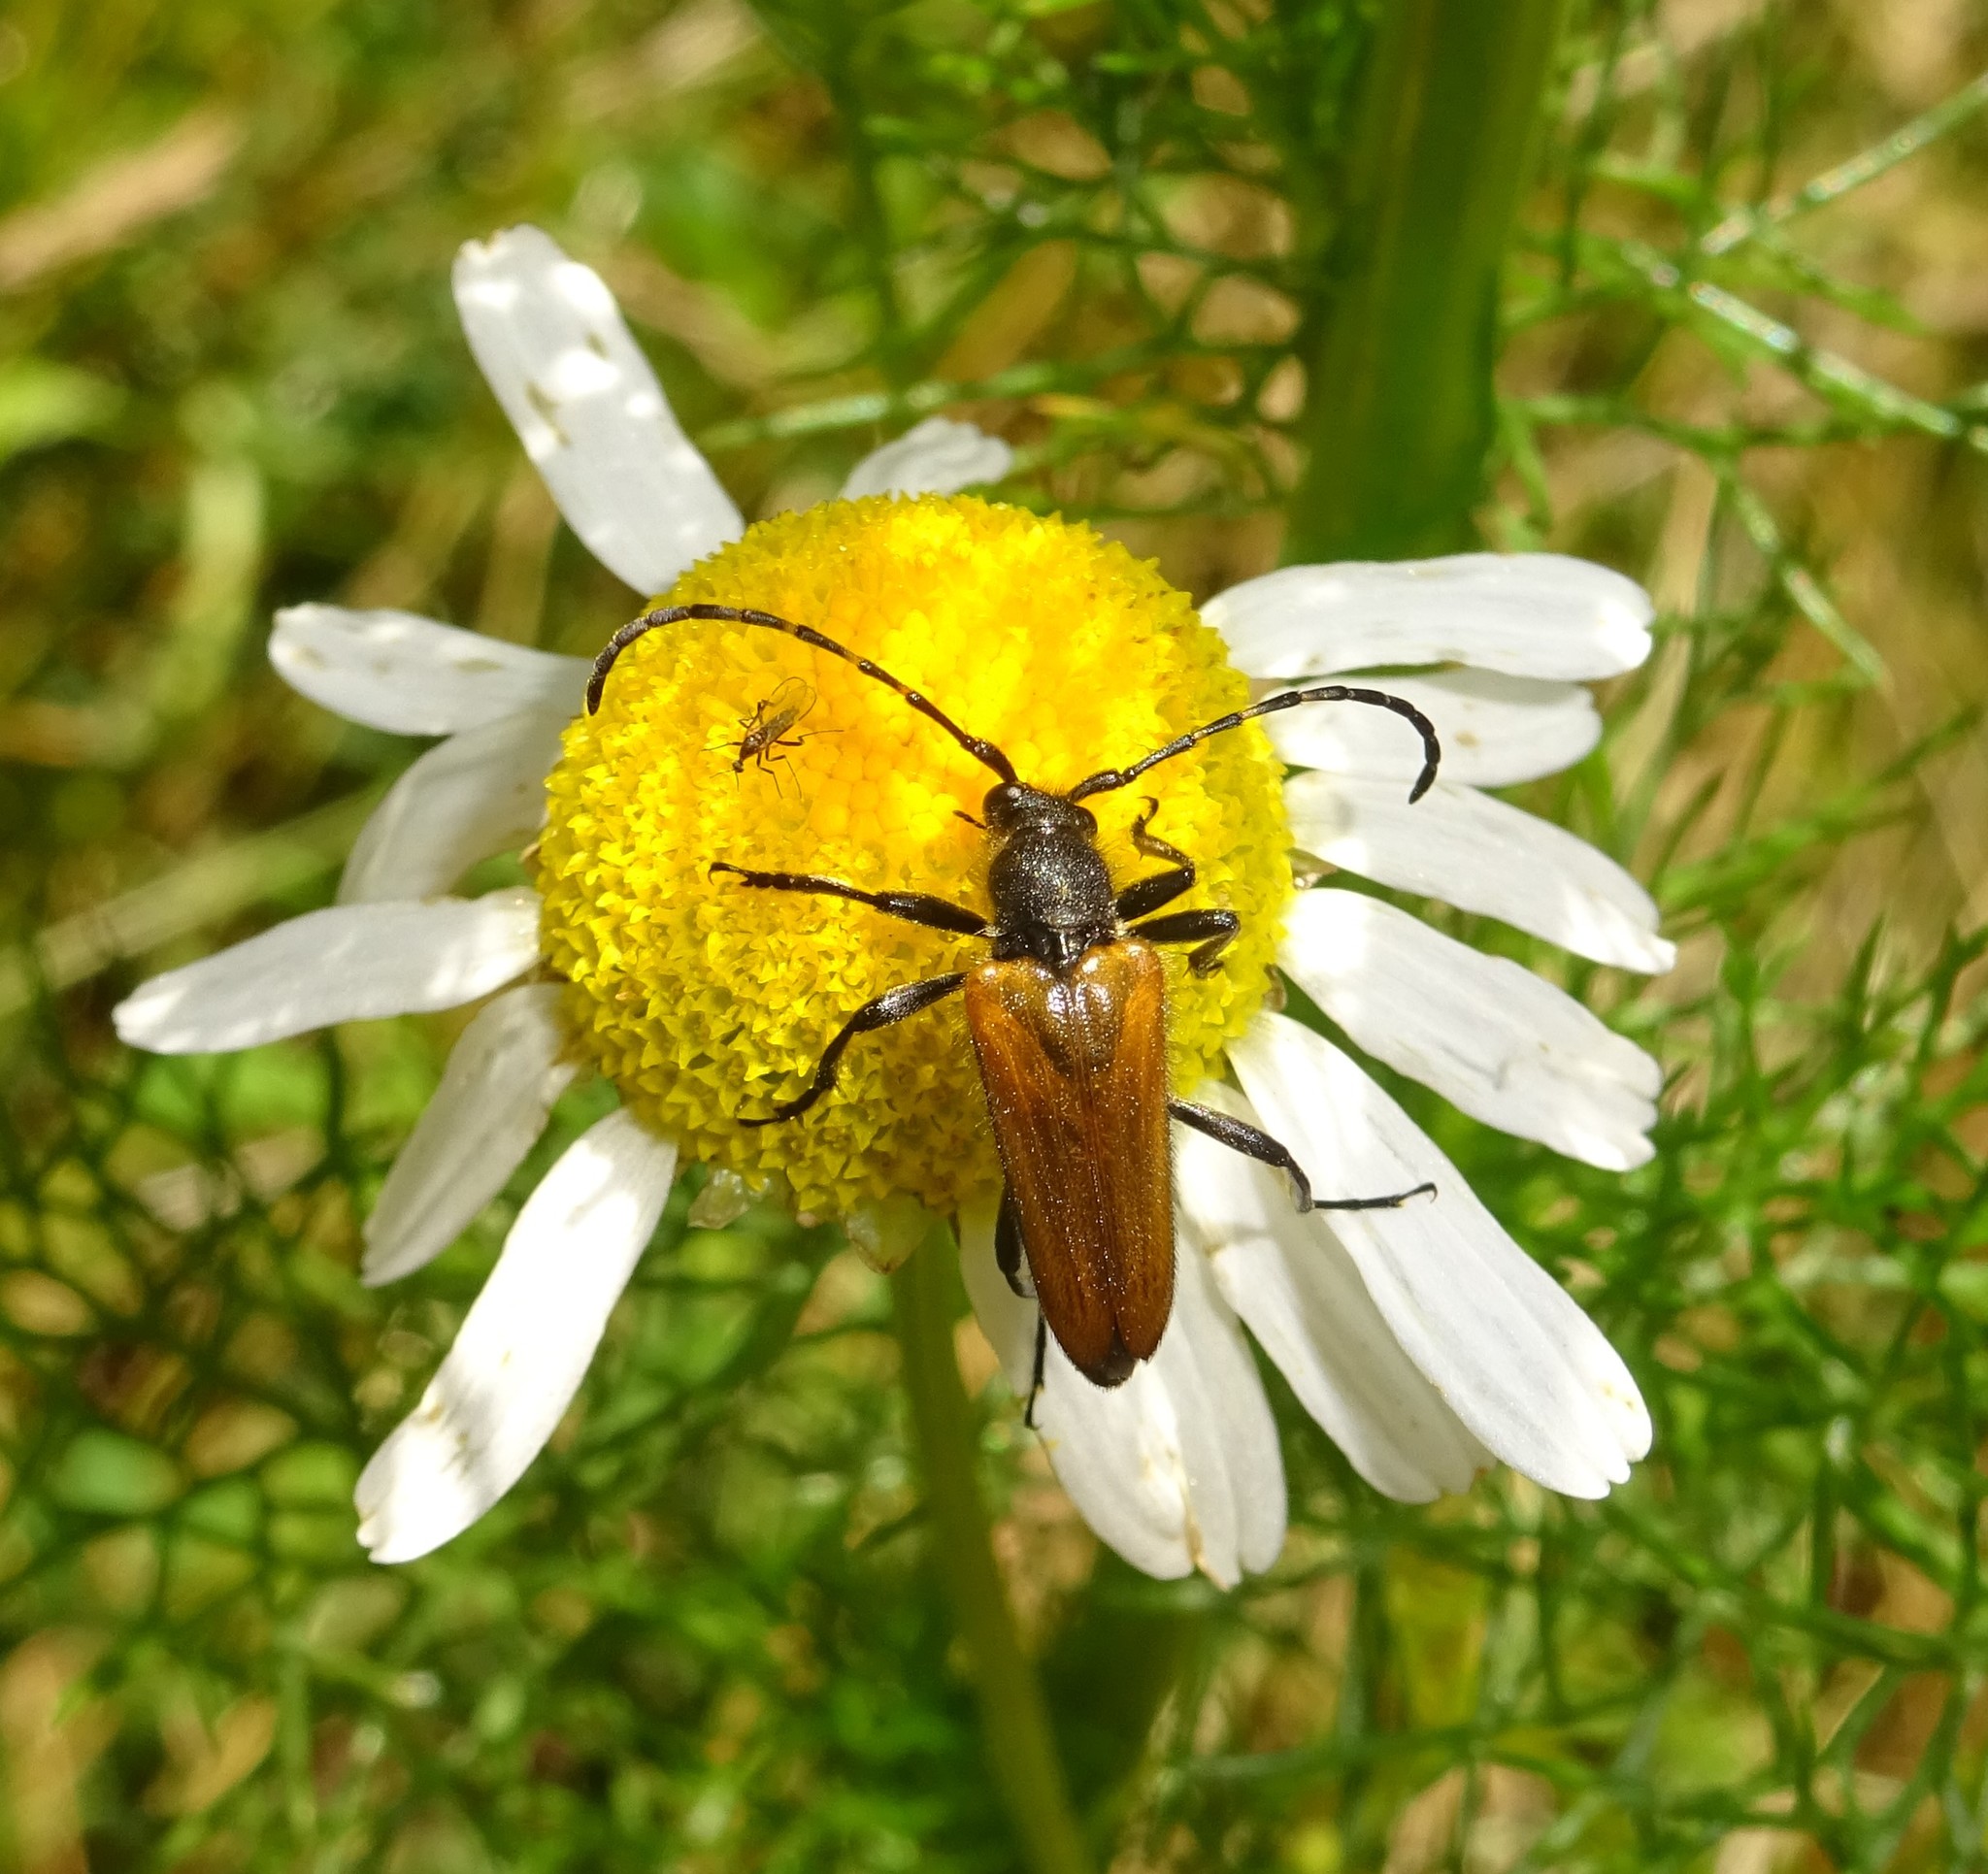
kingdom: Animalia
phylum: Arthropoda
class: Insecta
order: Coleoptera
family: Cerambycidae
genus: Paracorymbia
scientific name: Paracorymbia hybrida
